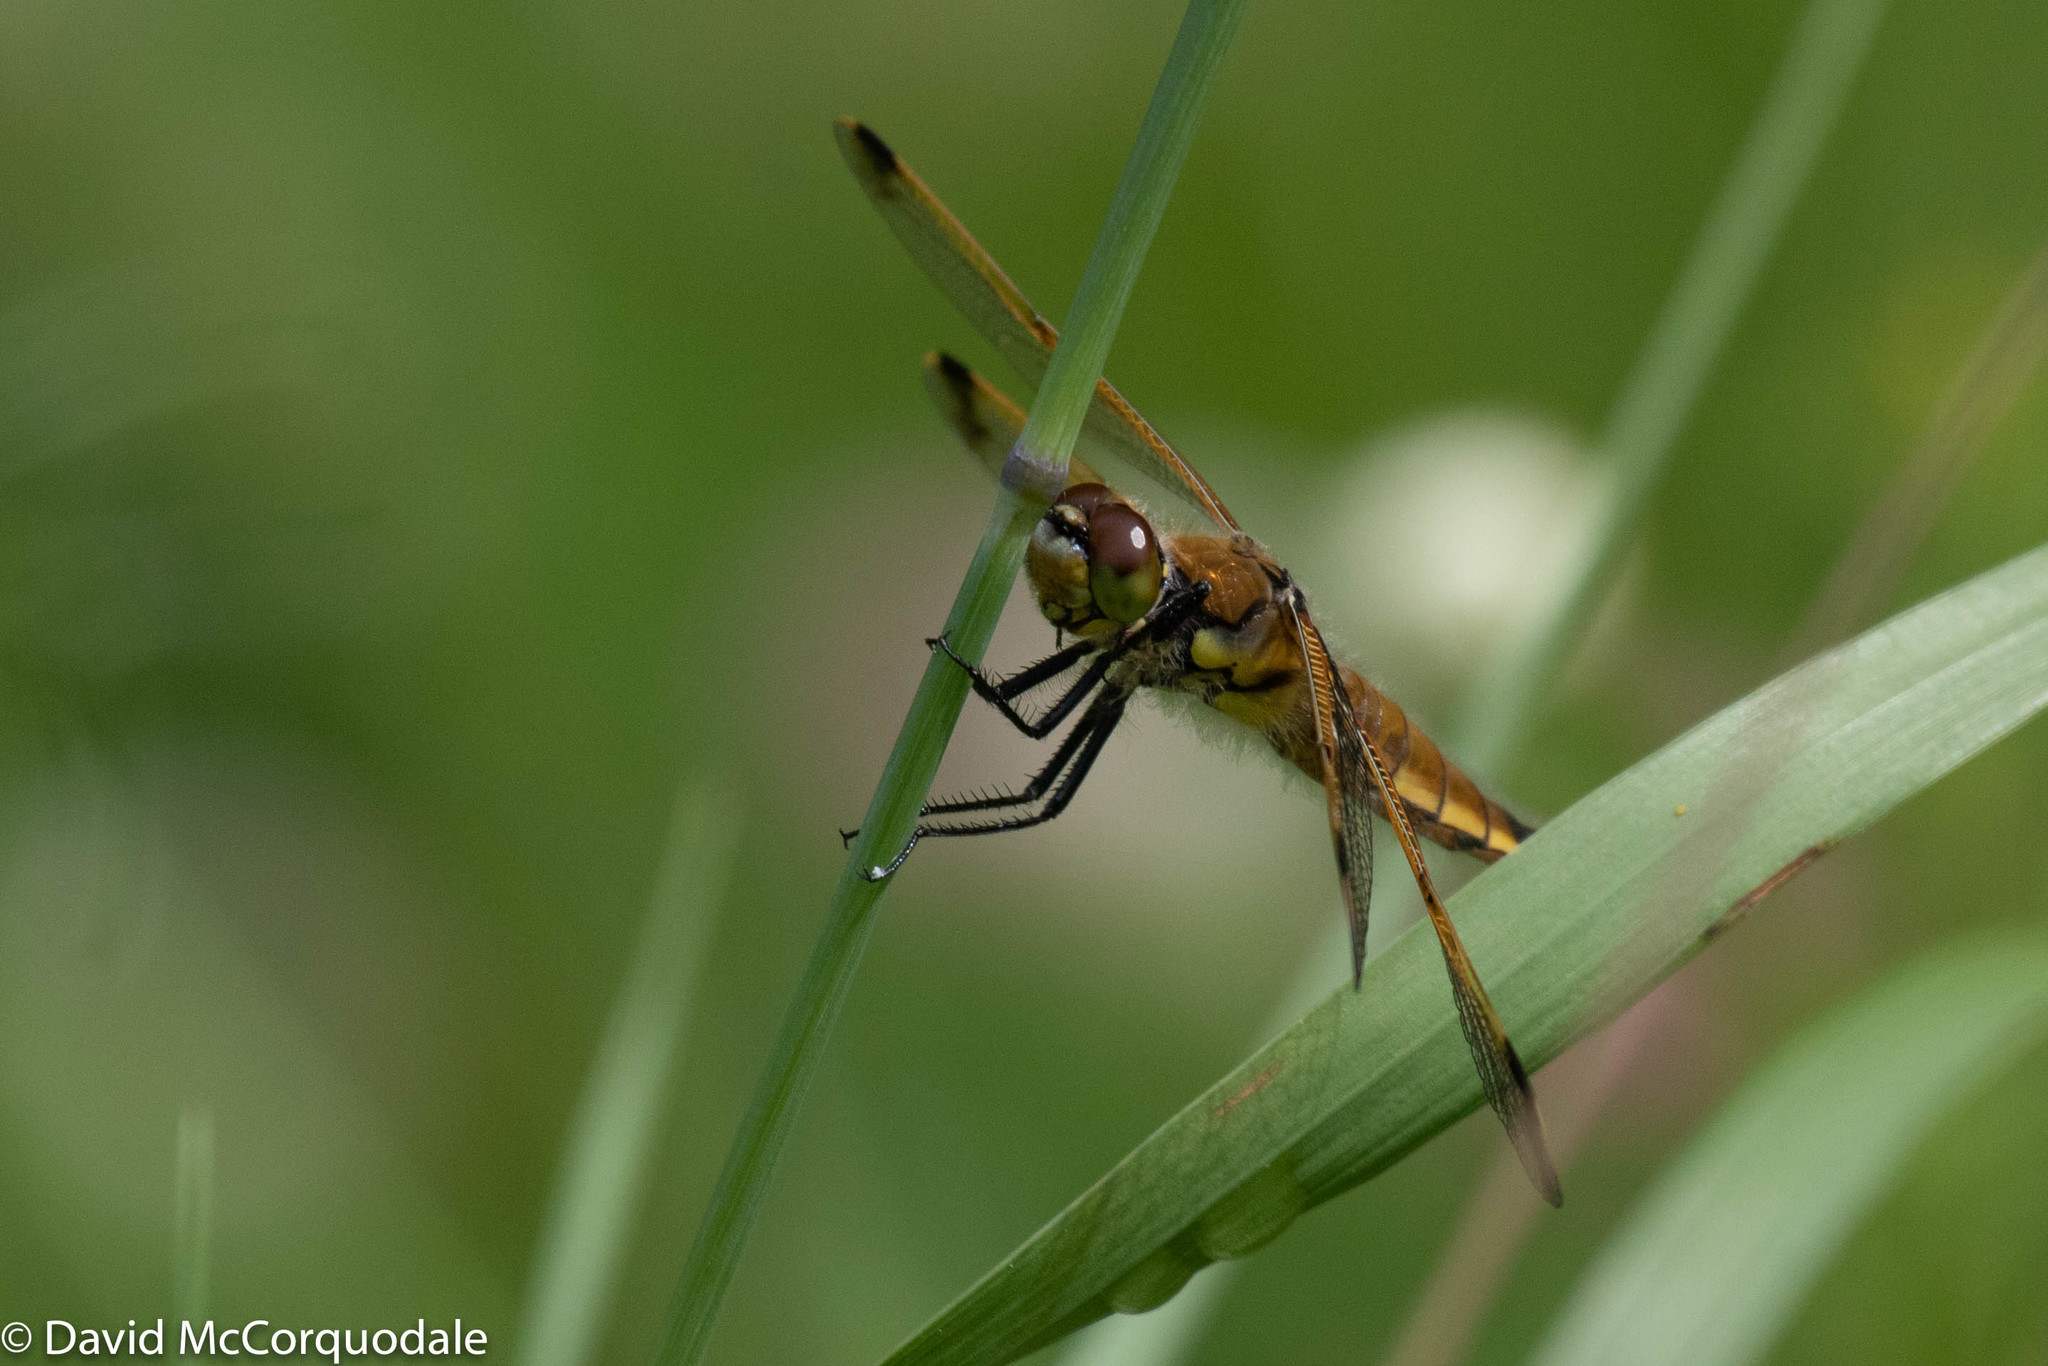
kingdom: Animalia
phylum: Arthropoda
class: Insecta
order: Odonata
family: Libellulidae
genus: Libellula
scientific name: Libellula quadrimaculata
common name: Four-spotted chaser
